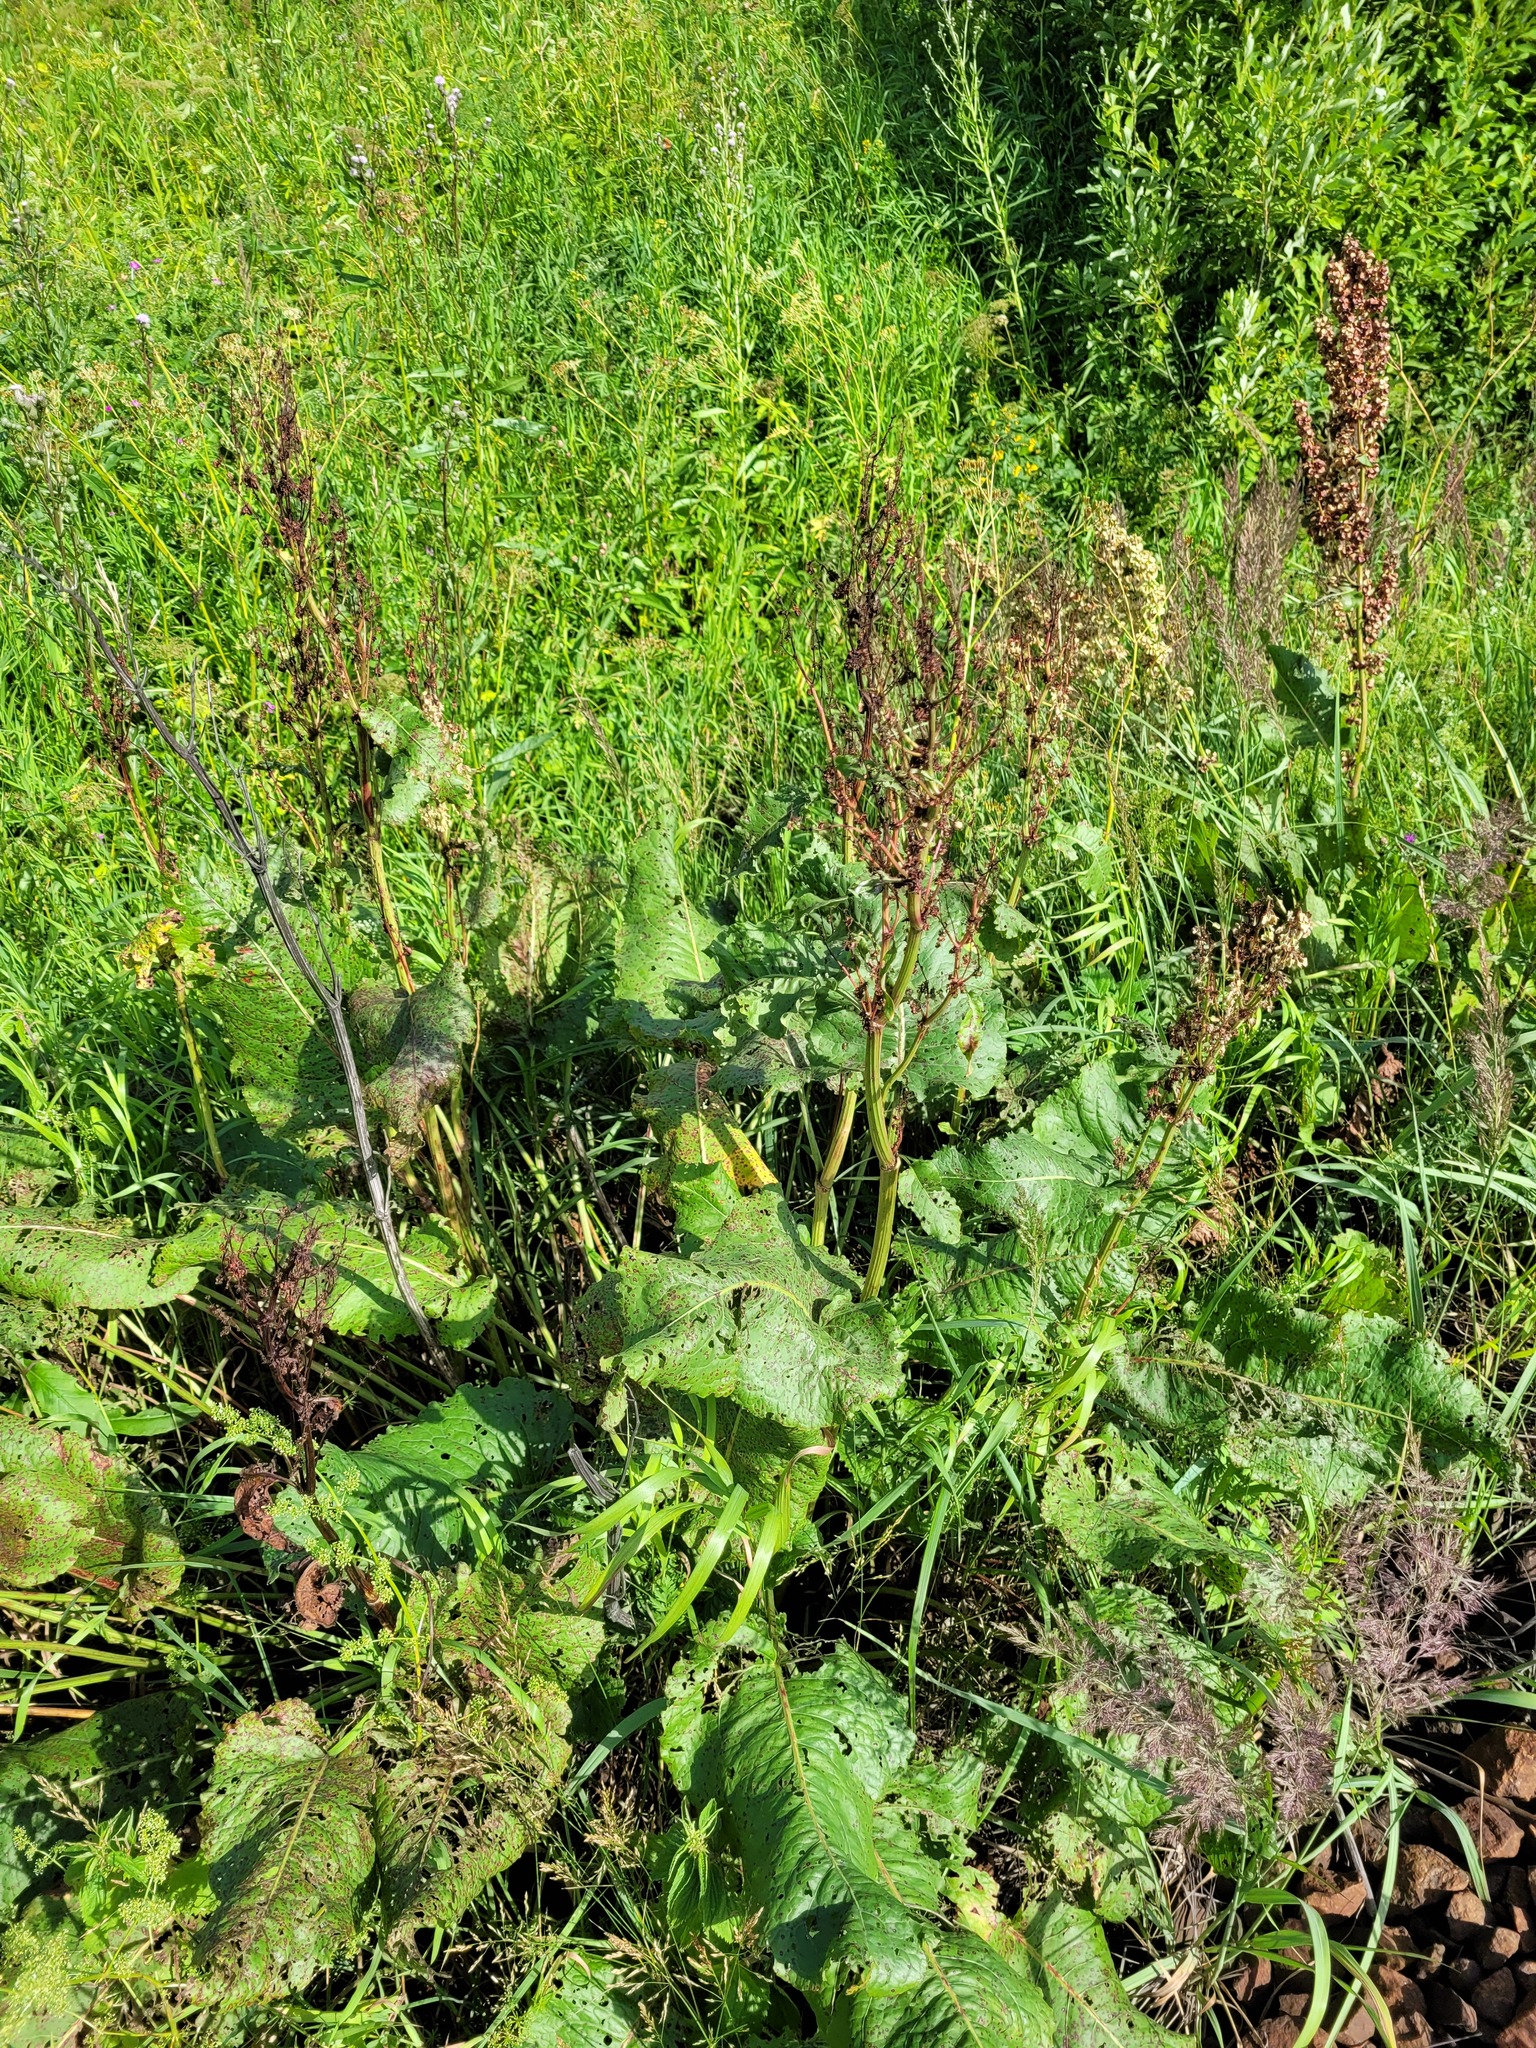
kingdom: Plantae
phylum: Tracheophyta
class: Magnoliopsida
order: Caryophyllales
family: Polygonaceae
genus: Rumex
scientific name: Rumex confertus
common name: Russian dock
